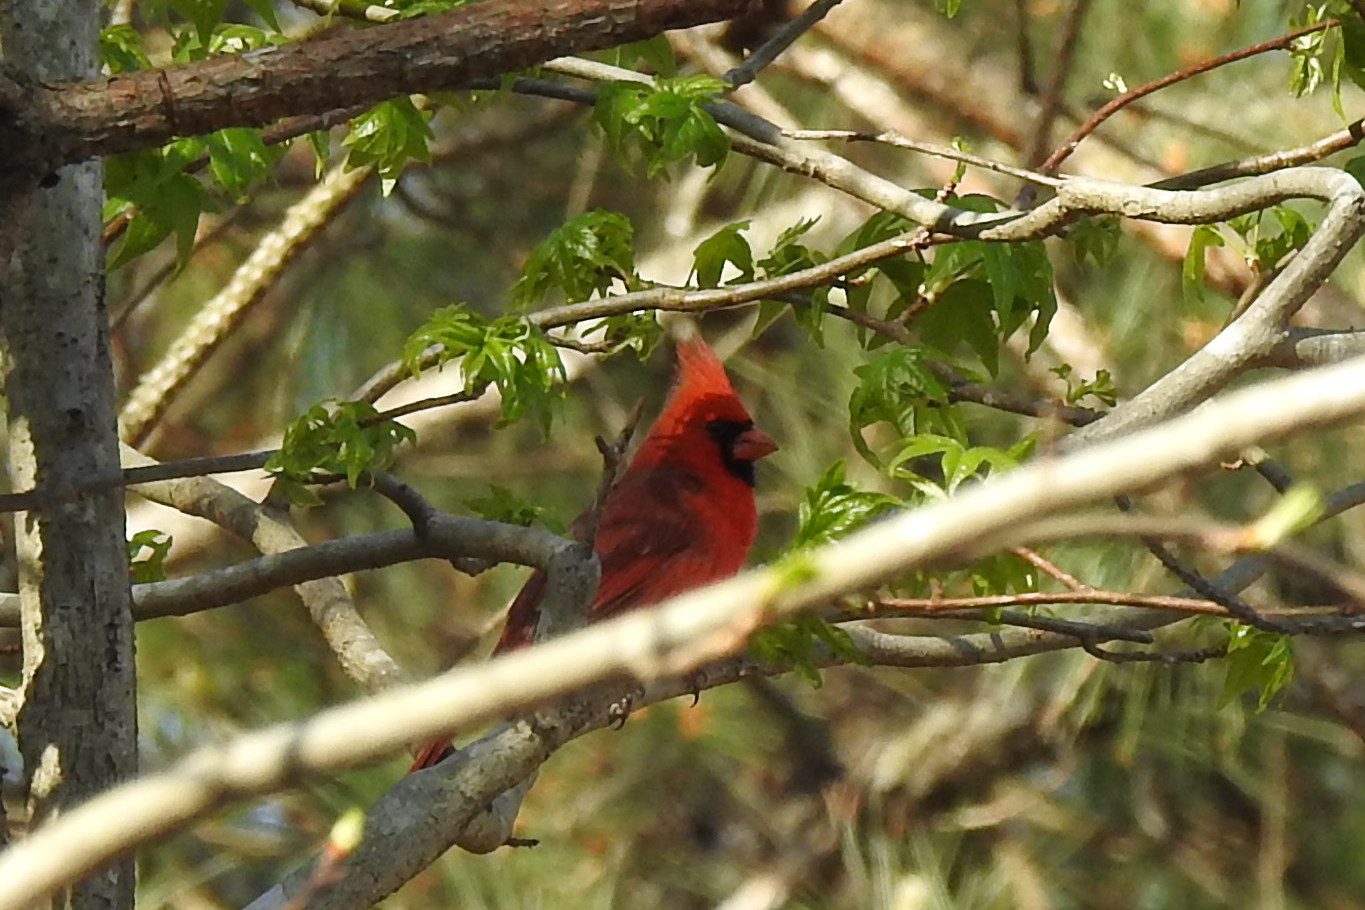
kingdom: Animalia
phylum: Chordata
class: Aves
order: Passeriformes
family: Cardinalidae
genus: Cardinalis
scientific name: Cardinalis cardinalis
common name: Northern cardinal
